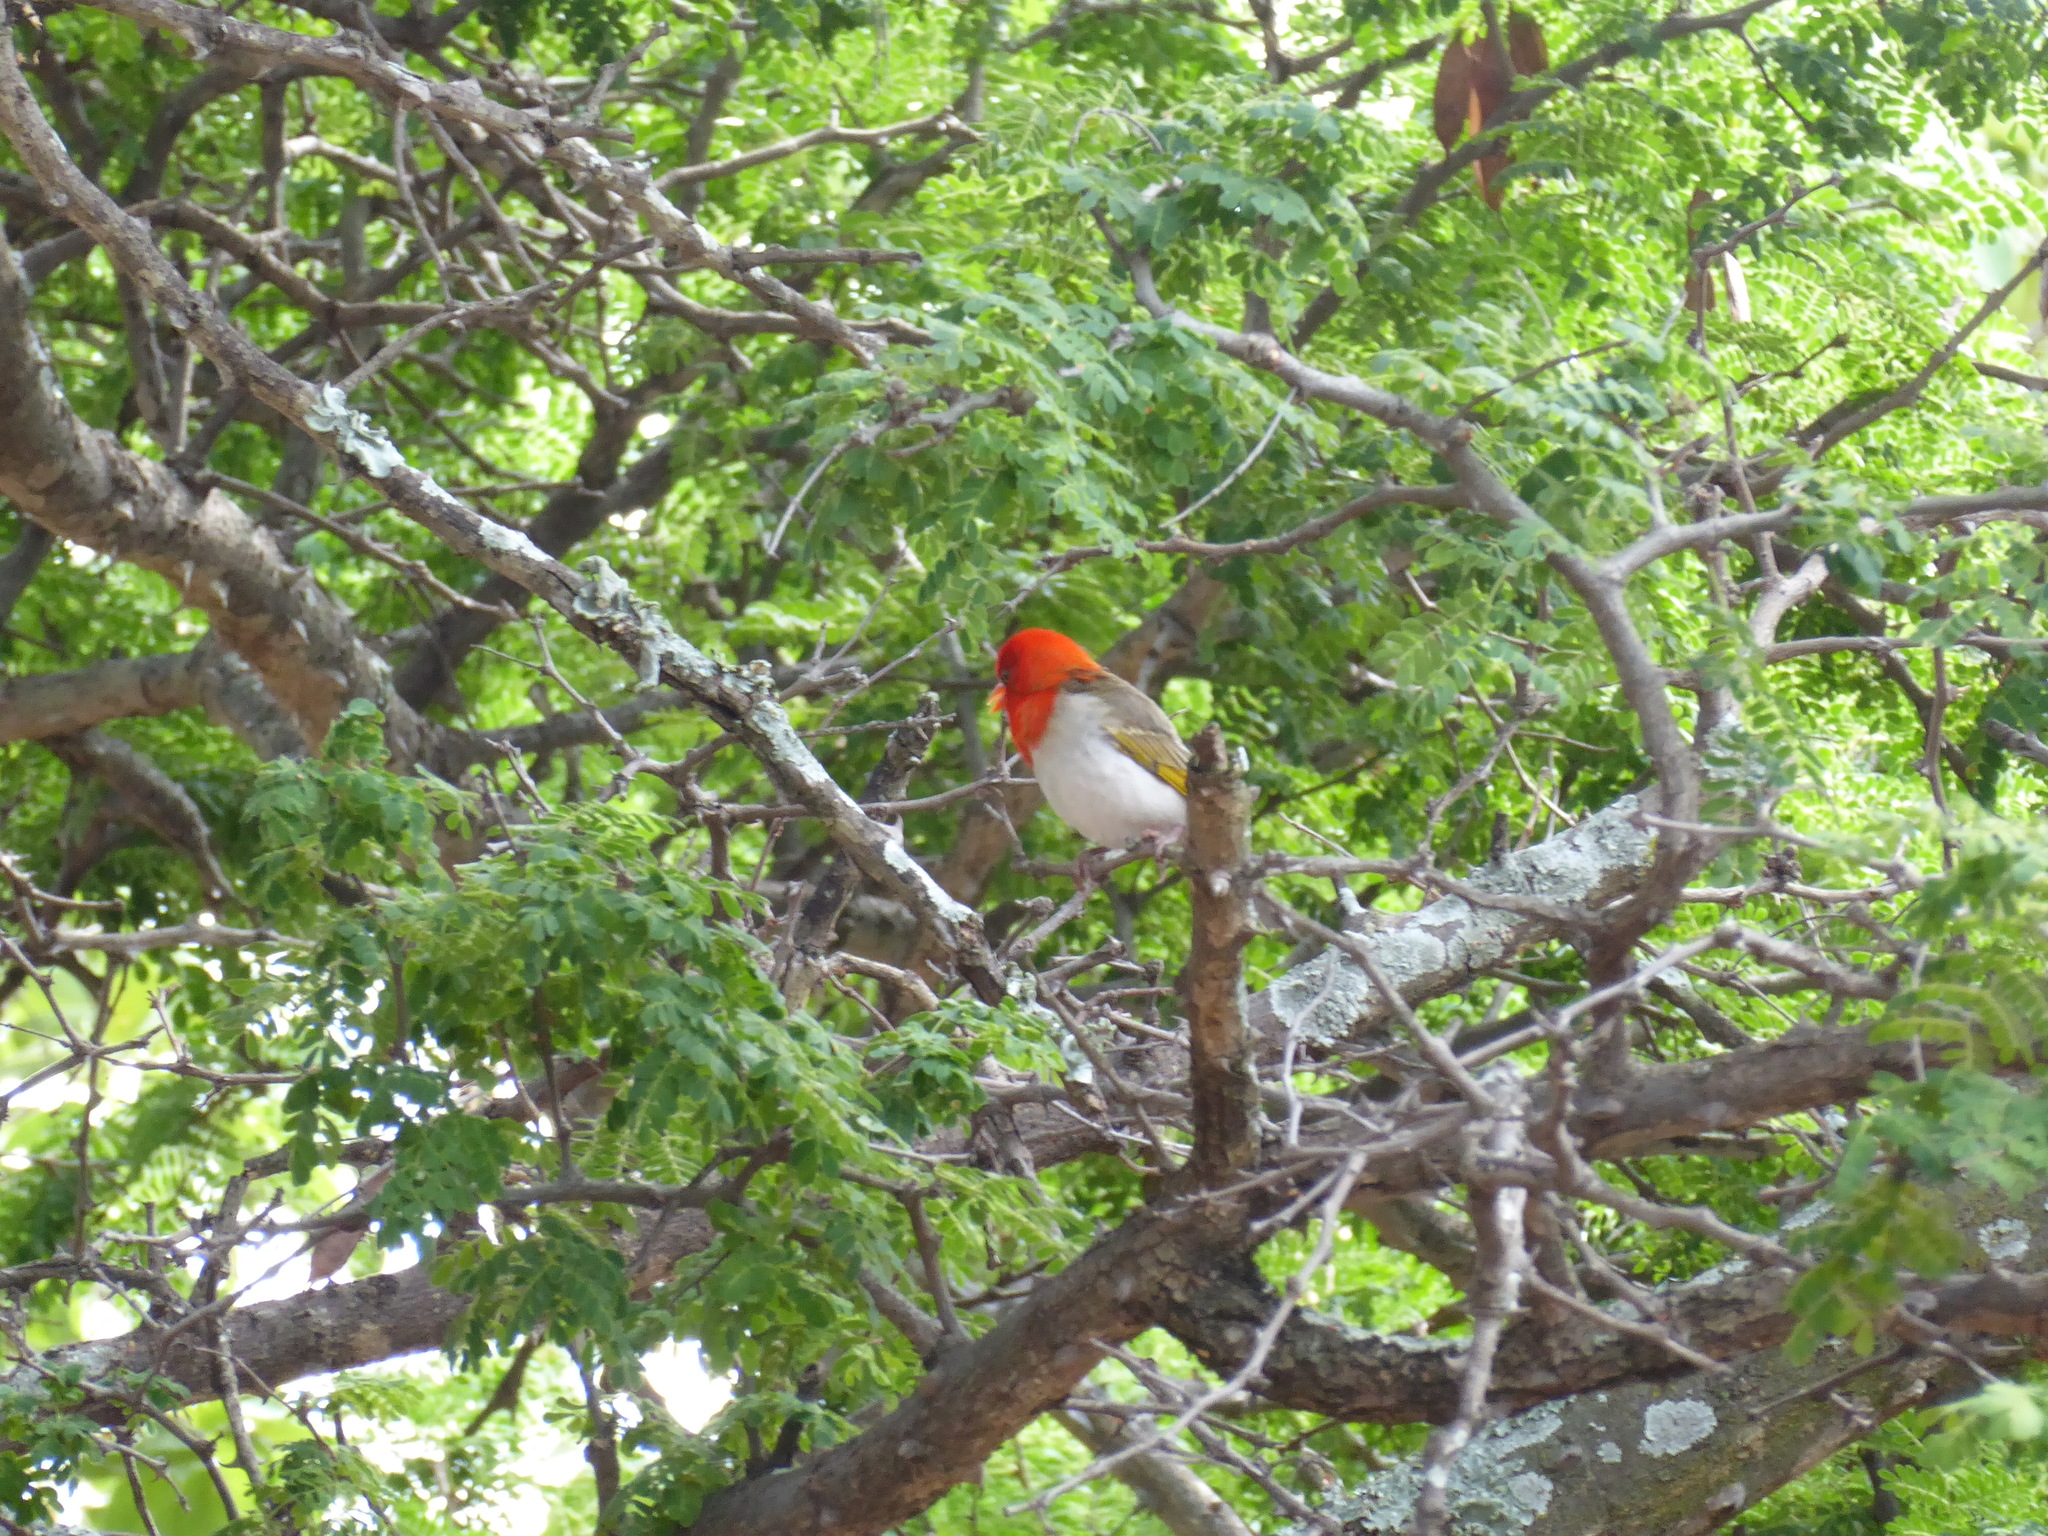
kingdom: Animalia
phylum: Chordata
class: Aves
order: Passeriformes
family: Ploceidae
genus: Anaplectes
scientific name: Anaplectes rubriceps
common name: Red-headed weaver
